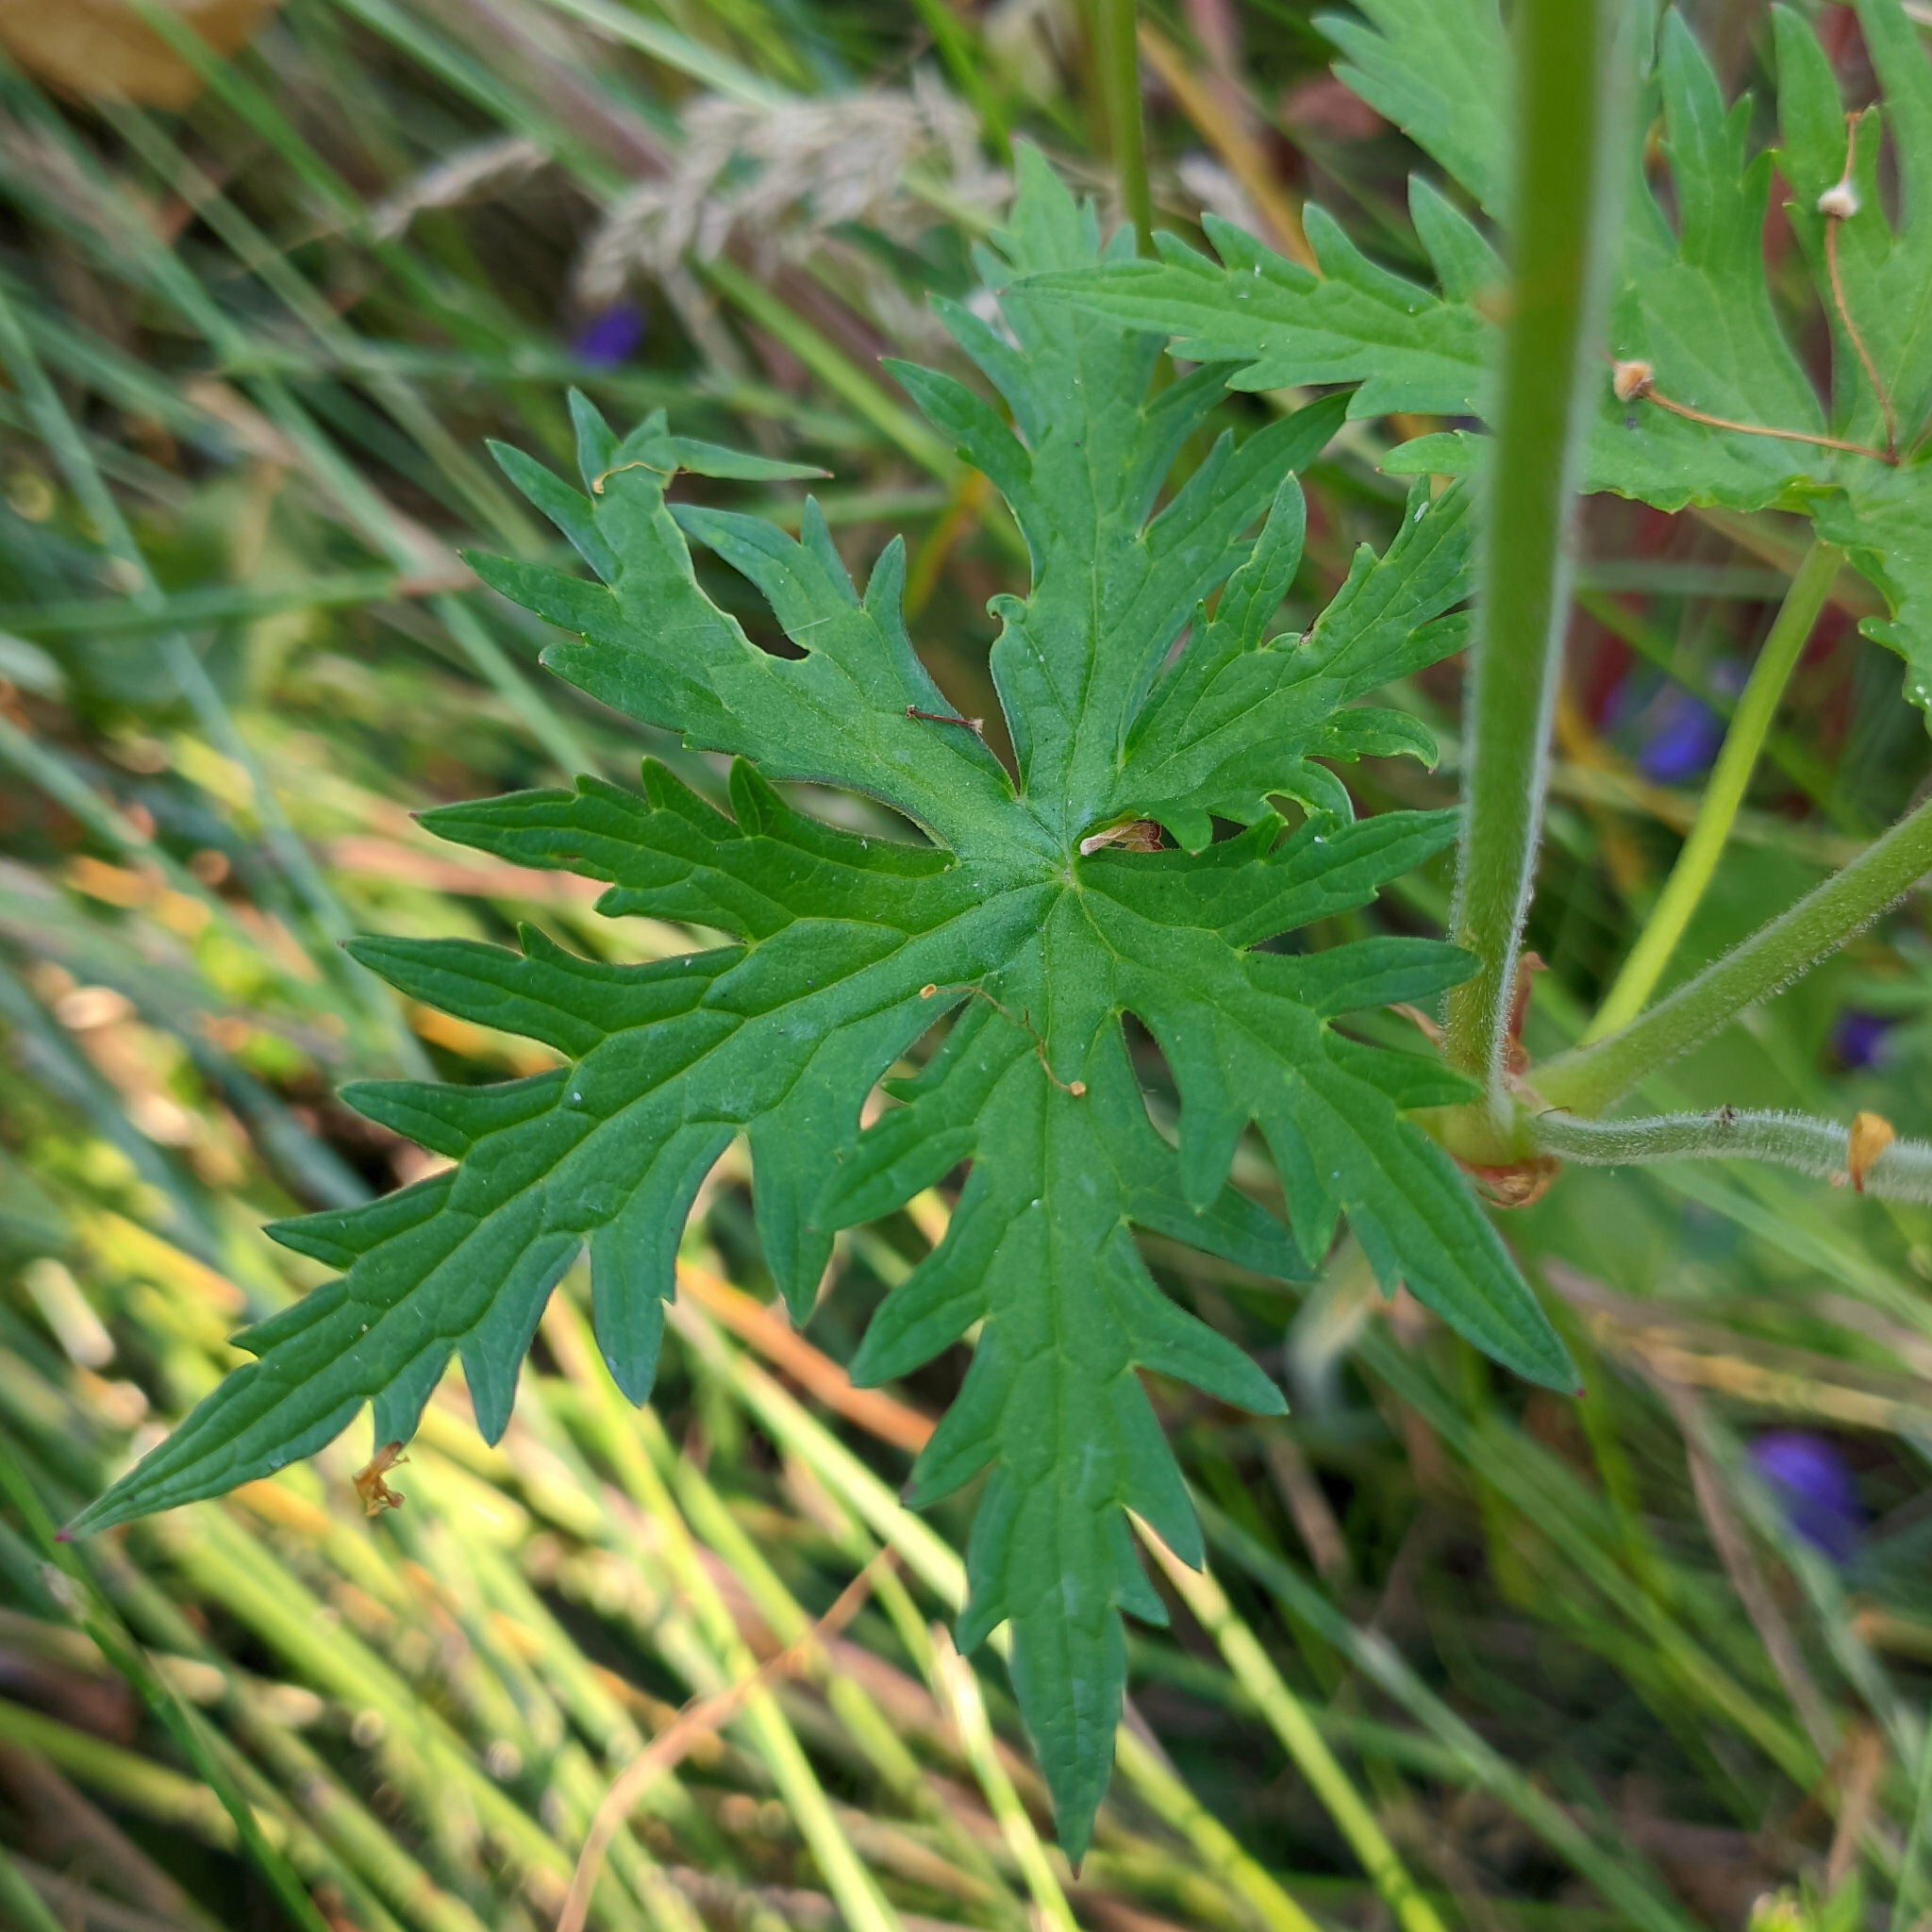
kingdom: Plantae
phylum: Tracheophyta
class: Magnoliopsida
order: Geraniales
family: Geraniaceae
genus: Geranium
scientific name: Geranium pratense
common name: Meadow crane's-bill
